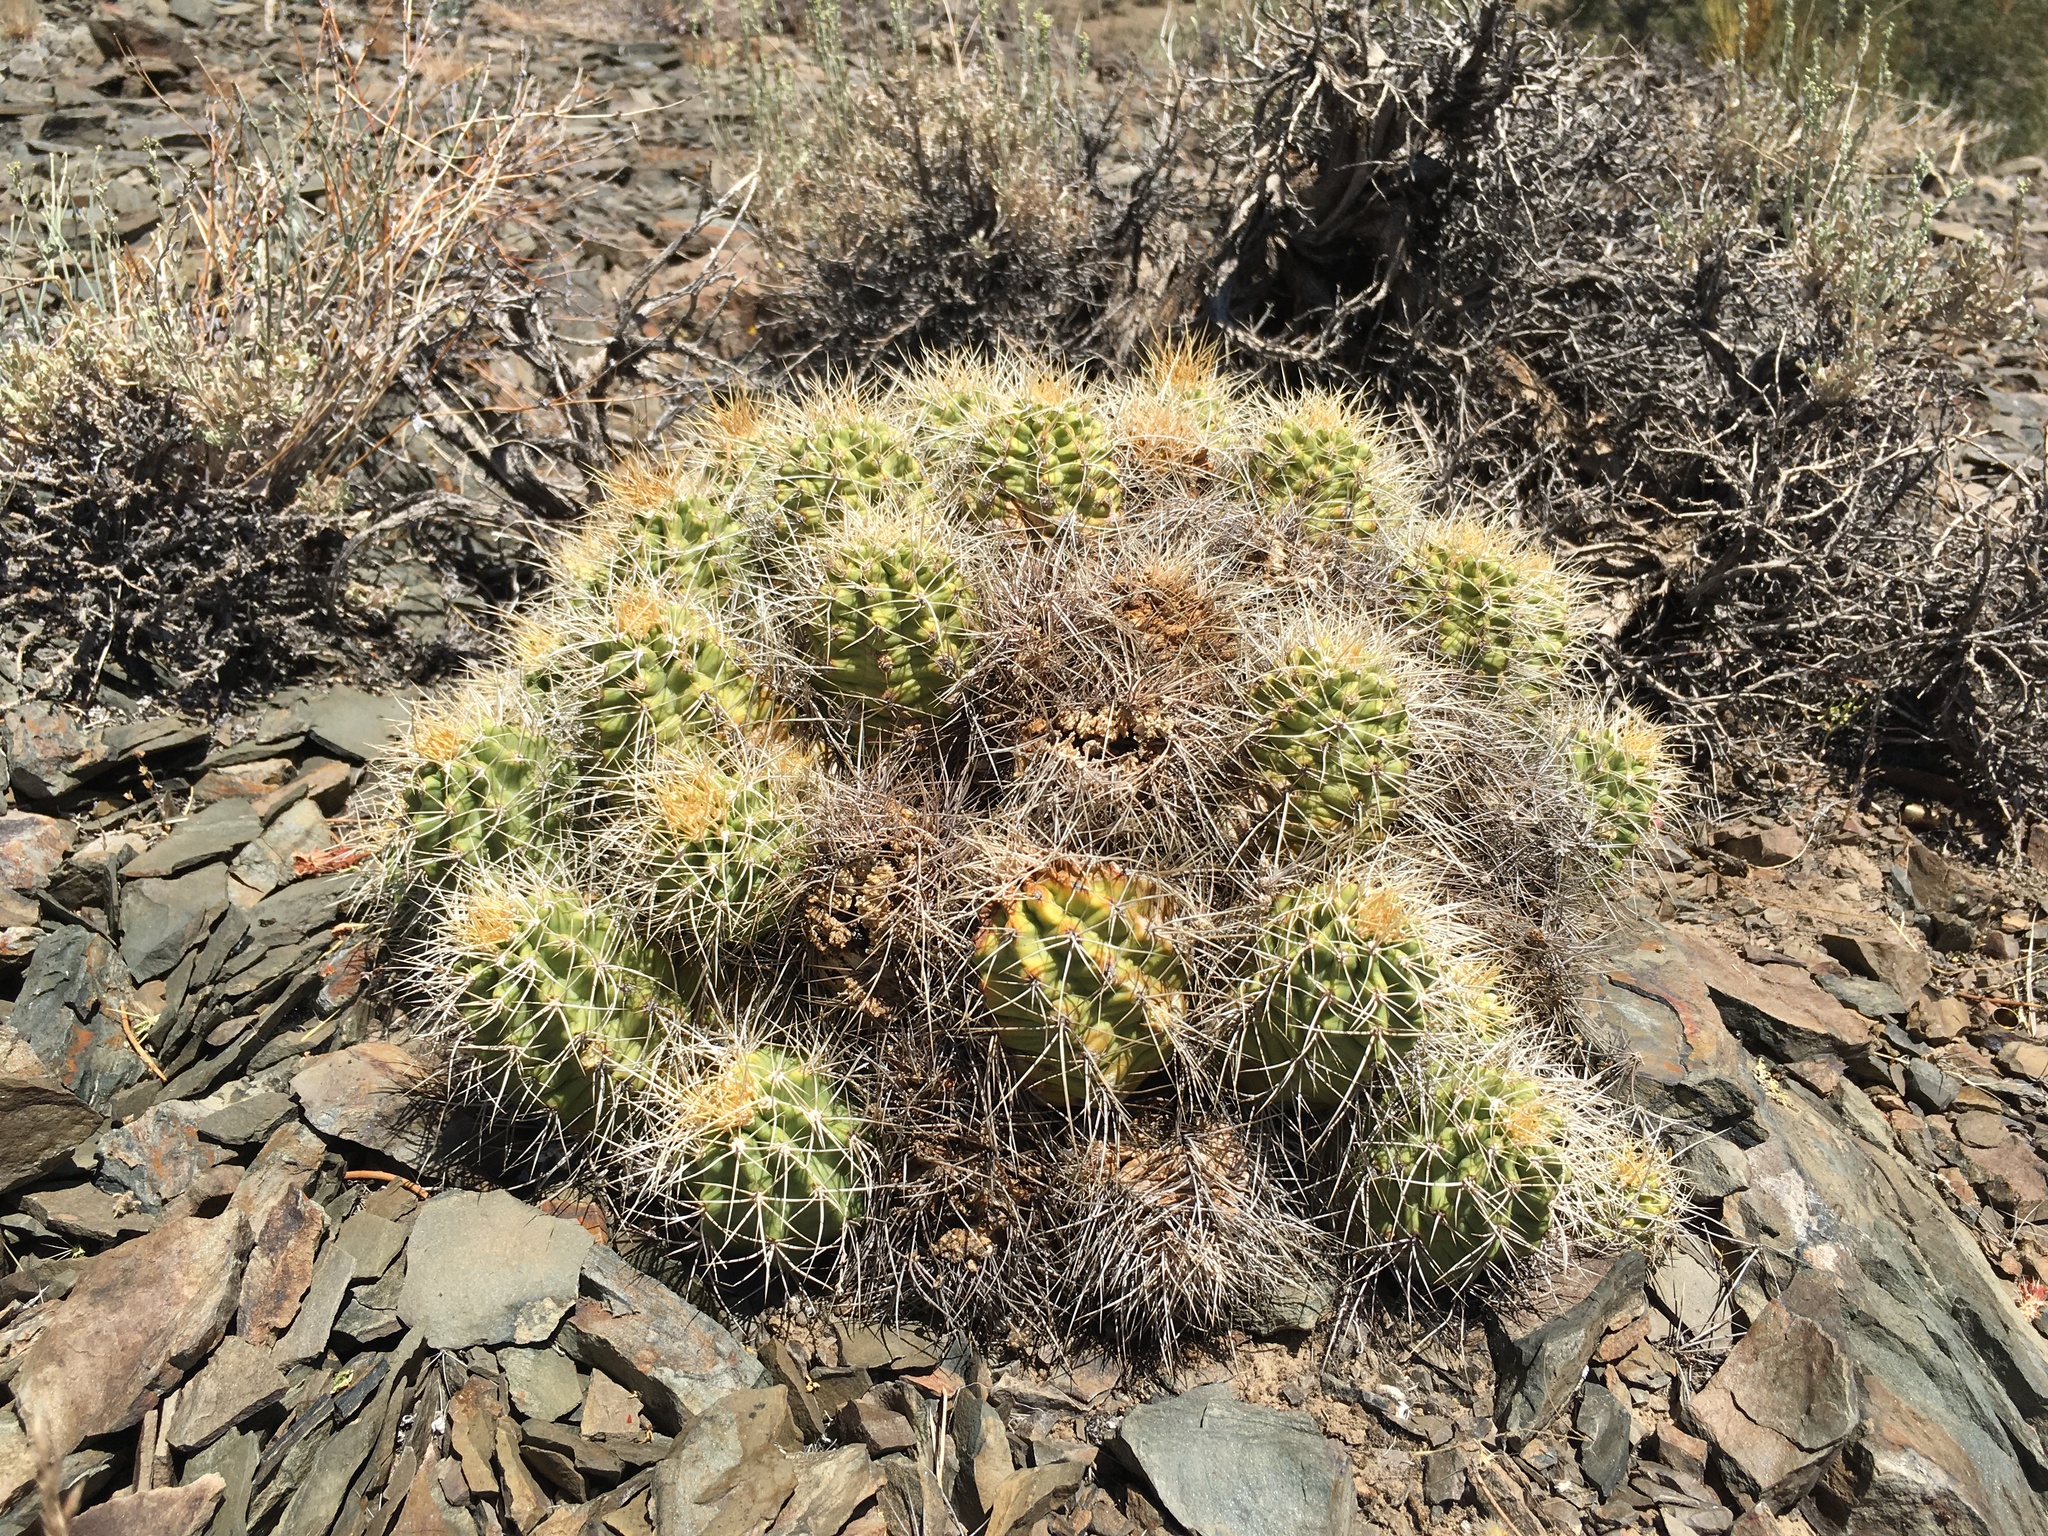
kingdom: Plantae
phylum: Tracheophyta
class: Magnoliopsida
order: Caryophyllales
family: Cactaceae
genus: Echinocereus
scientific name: Echinocereus triglochidiatus
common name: Claretcup hedgehog
